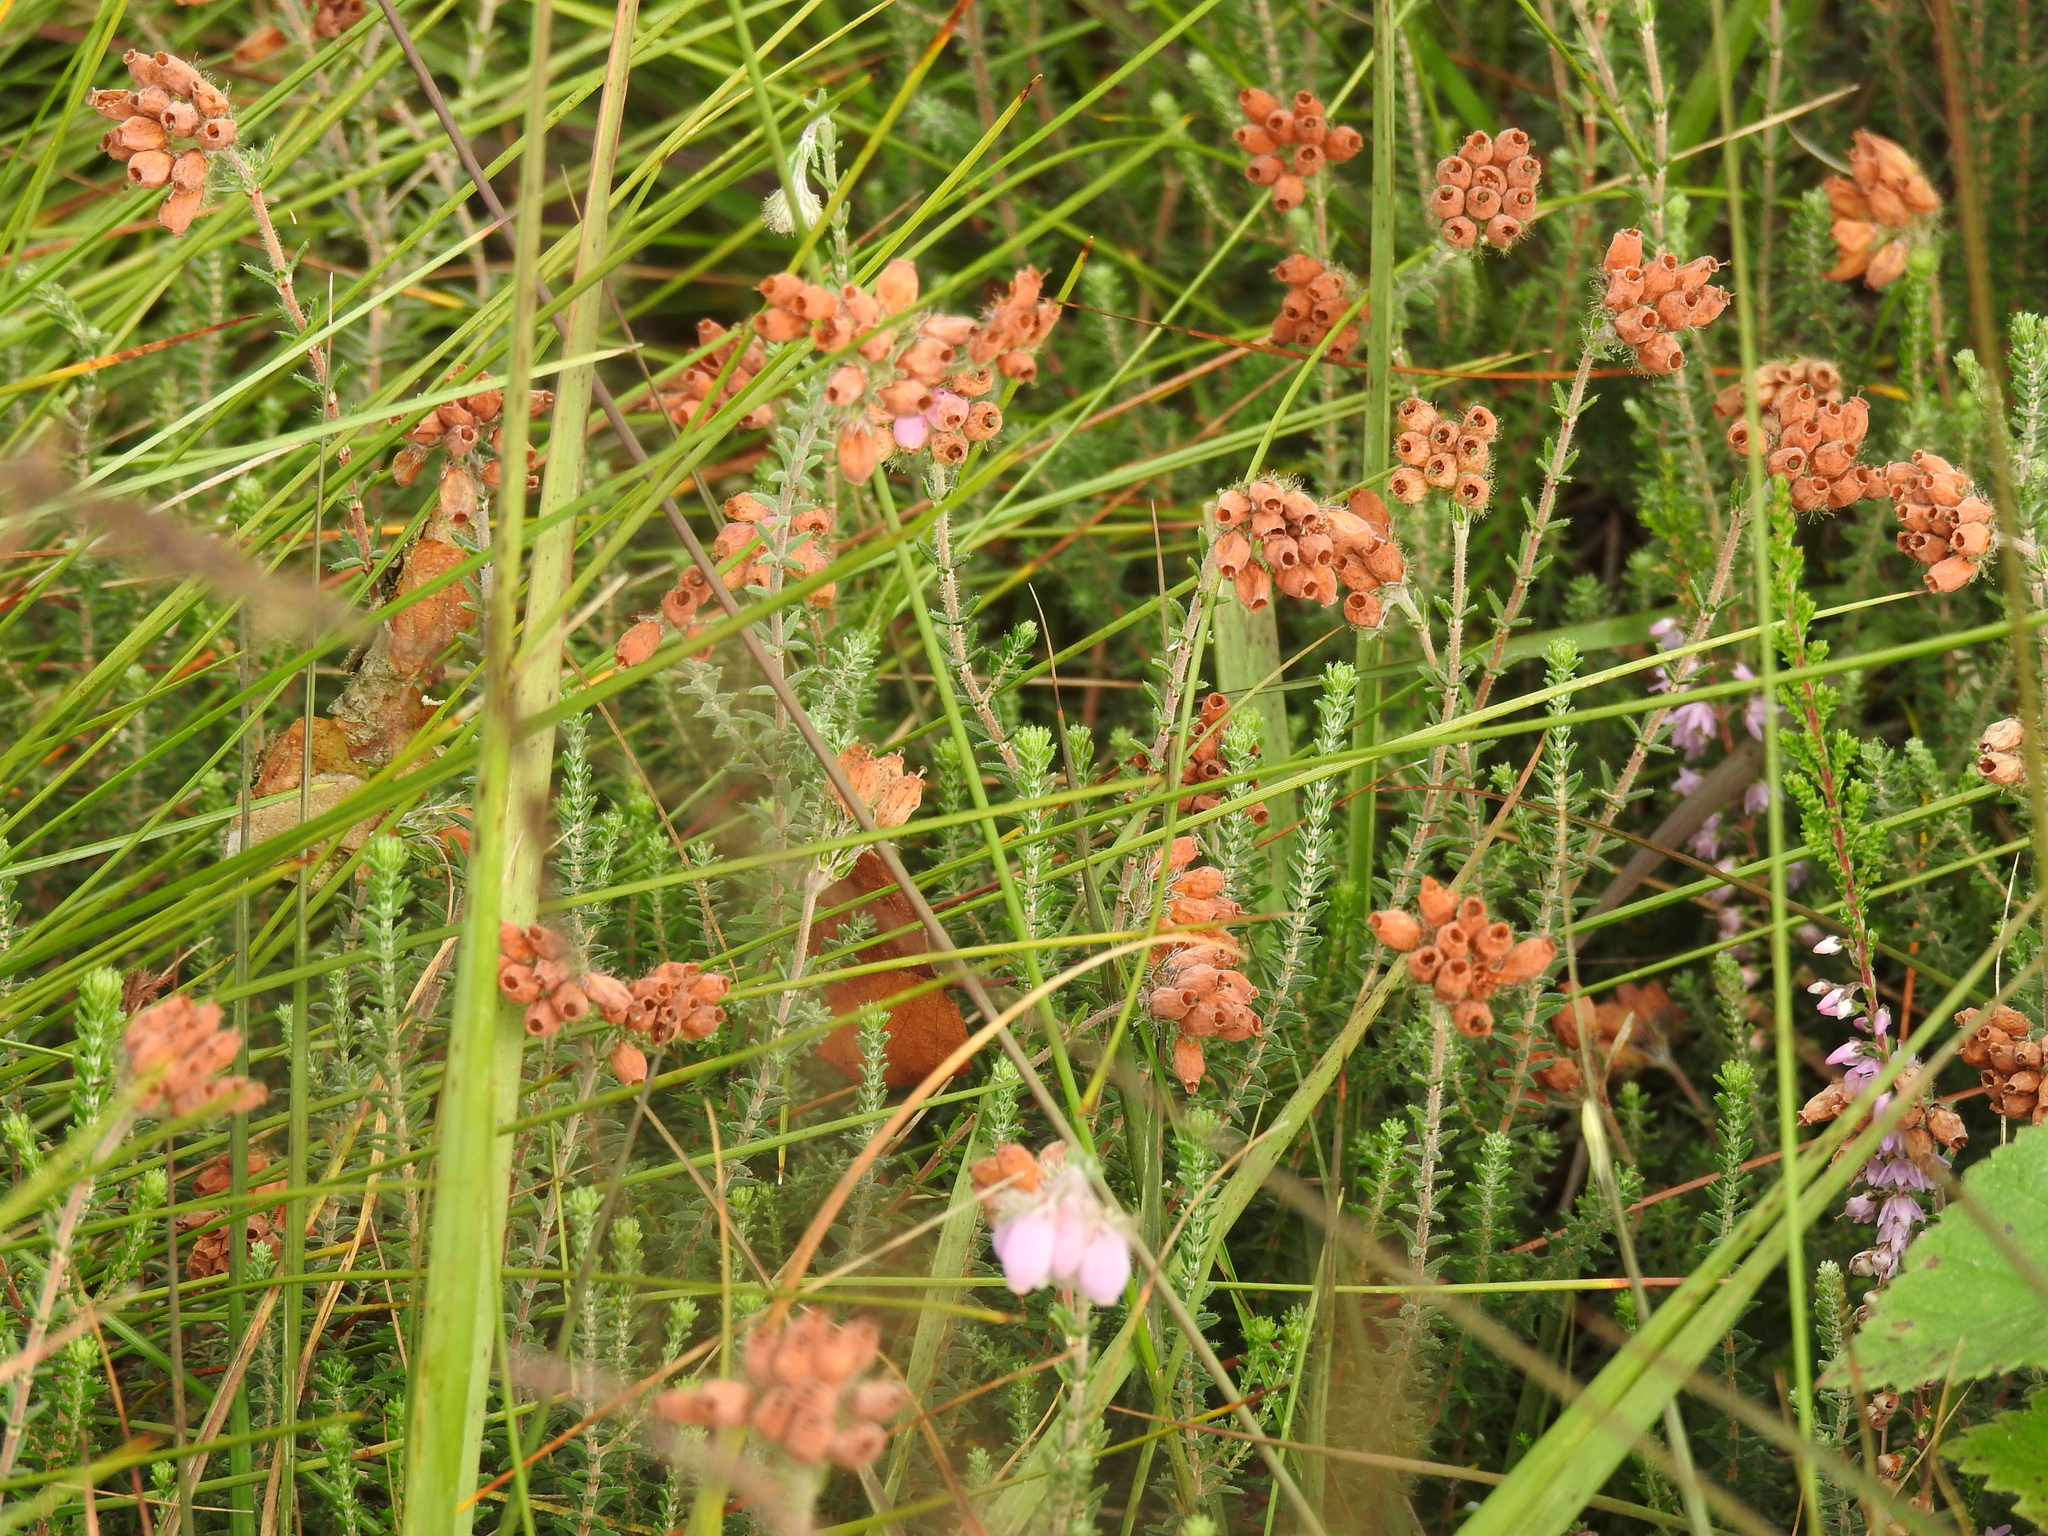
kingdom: Plantae
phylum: Tracheophyta
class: Magnoliopsida
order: Ericales
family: Ericaceae
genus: Erica
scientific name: Erica tetralix
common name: Cross-leaved heath
